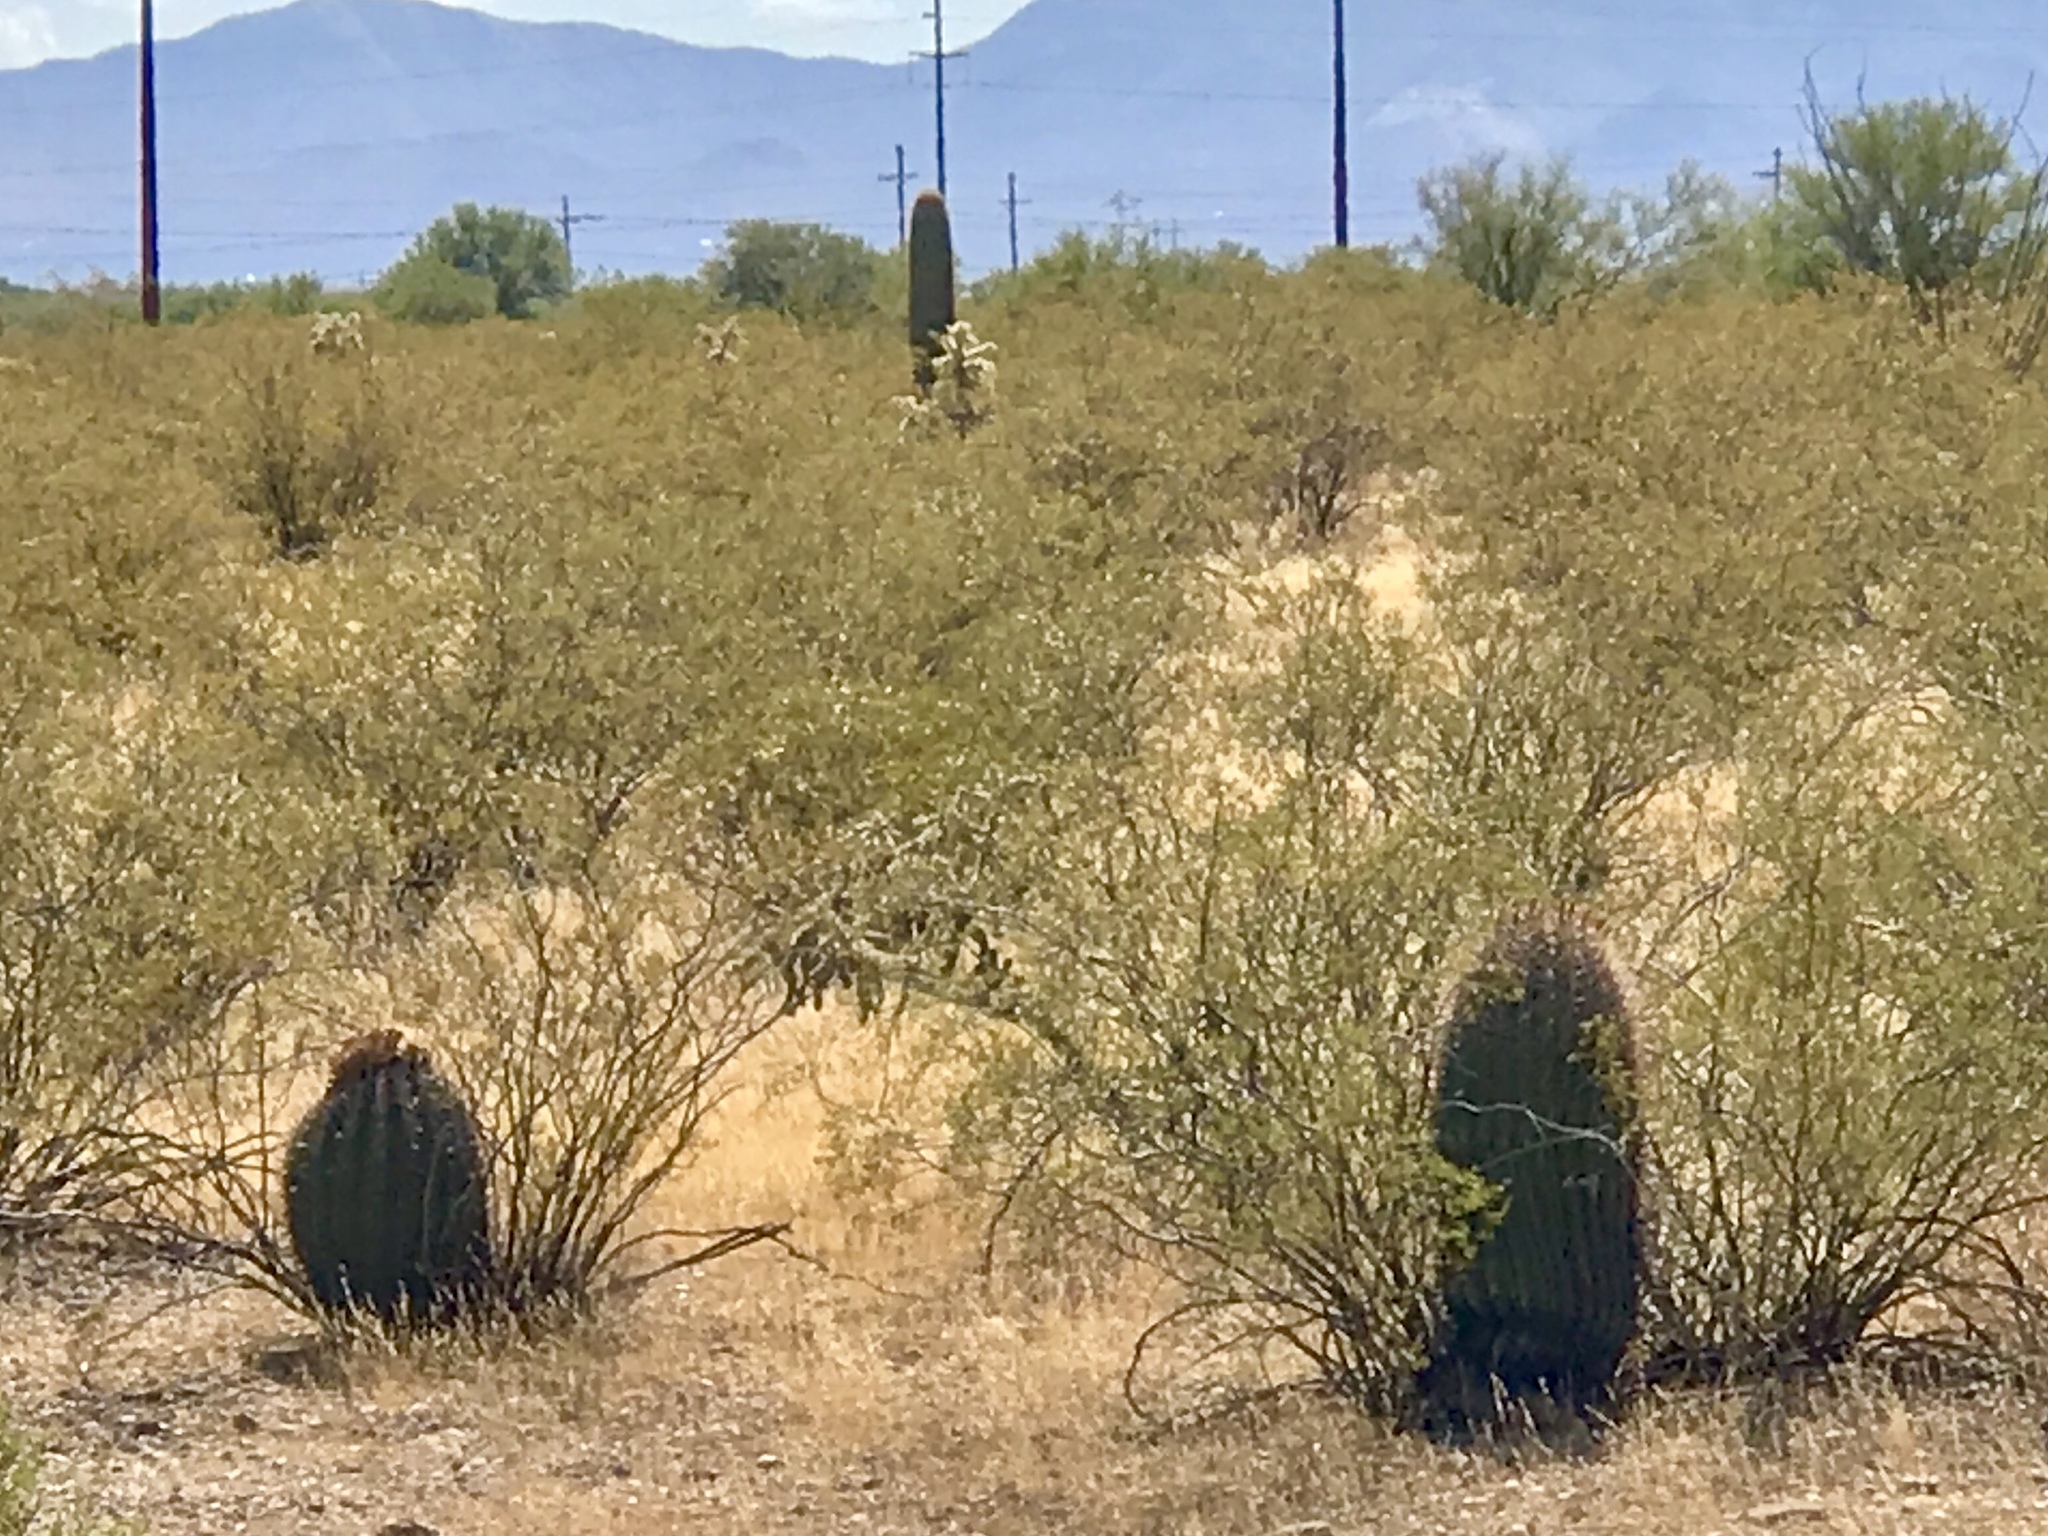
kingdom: Plantae
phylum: Tracheophyta
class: Magnoliopsida
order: Caryophyllales
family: Cactaceae
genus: Ferocactus
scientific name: Ferocactus wislizeni
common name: Candy barrel cactus
